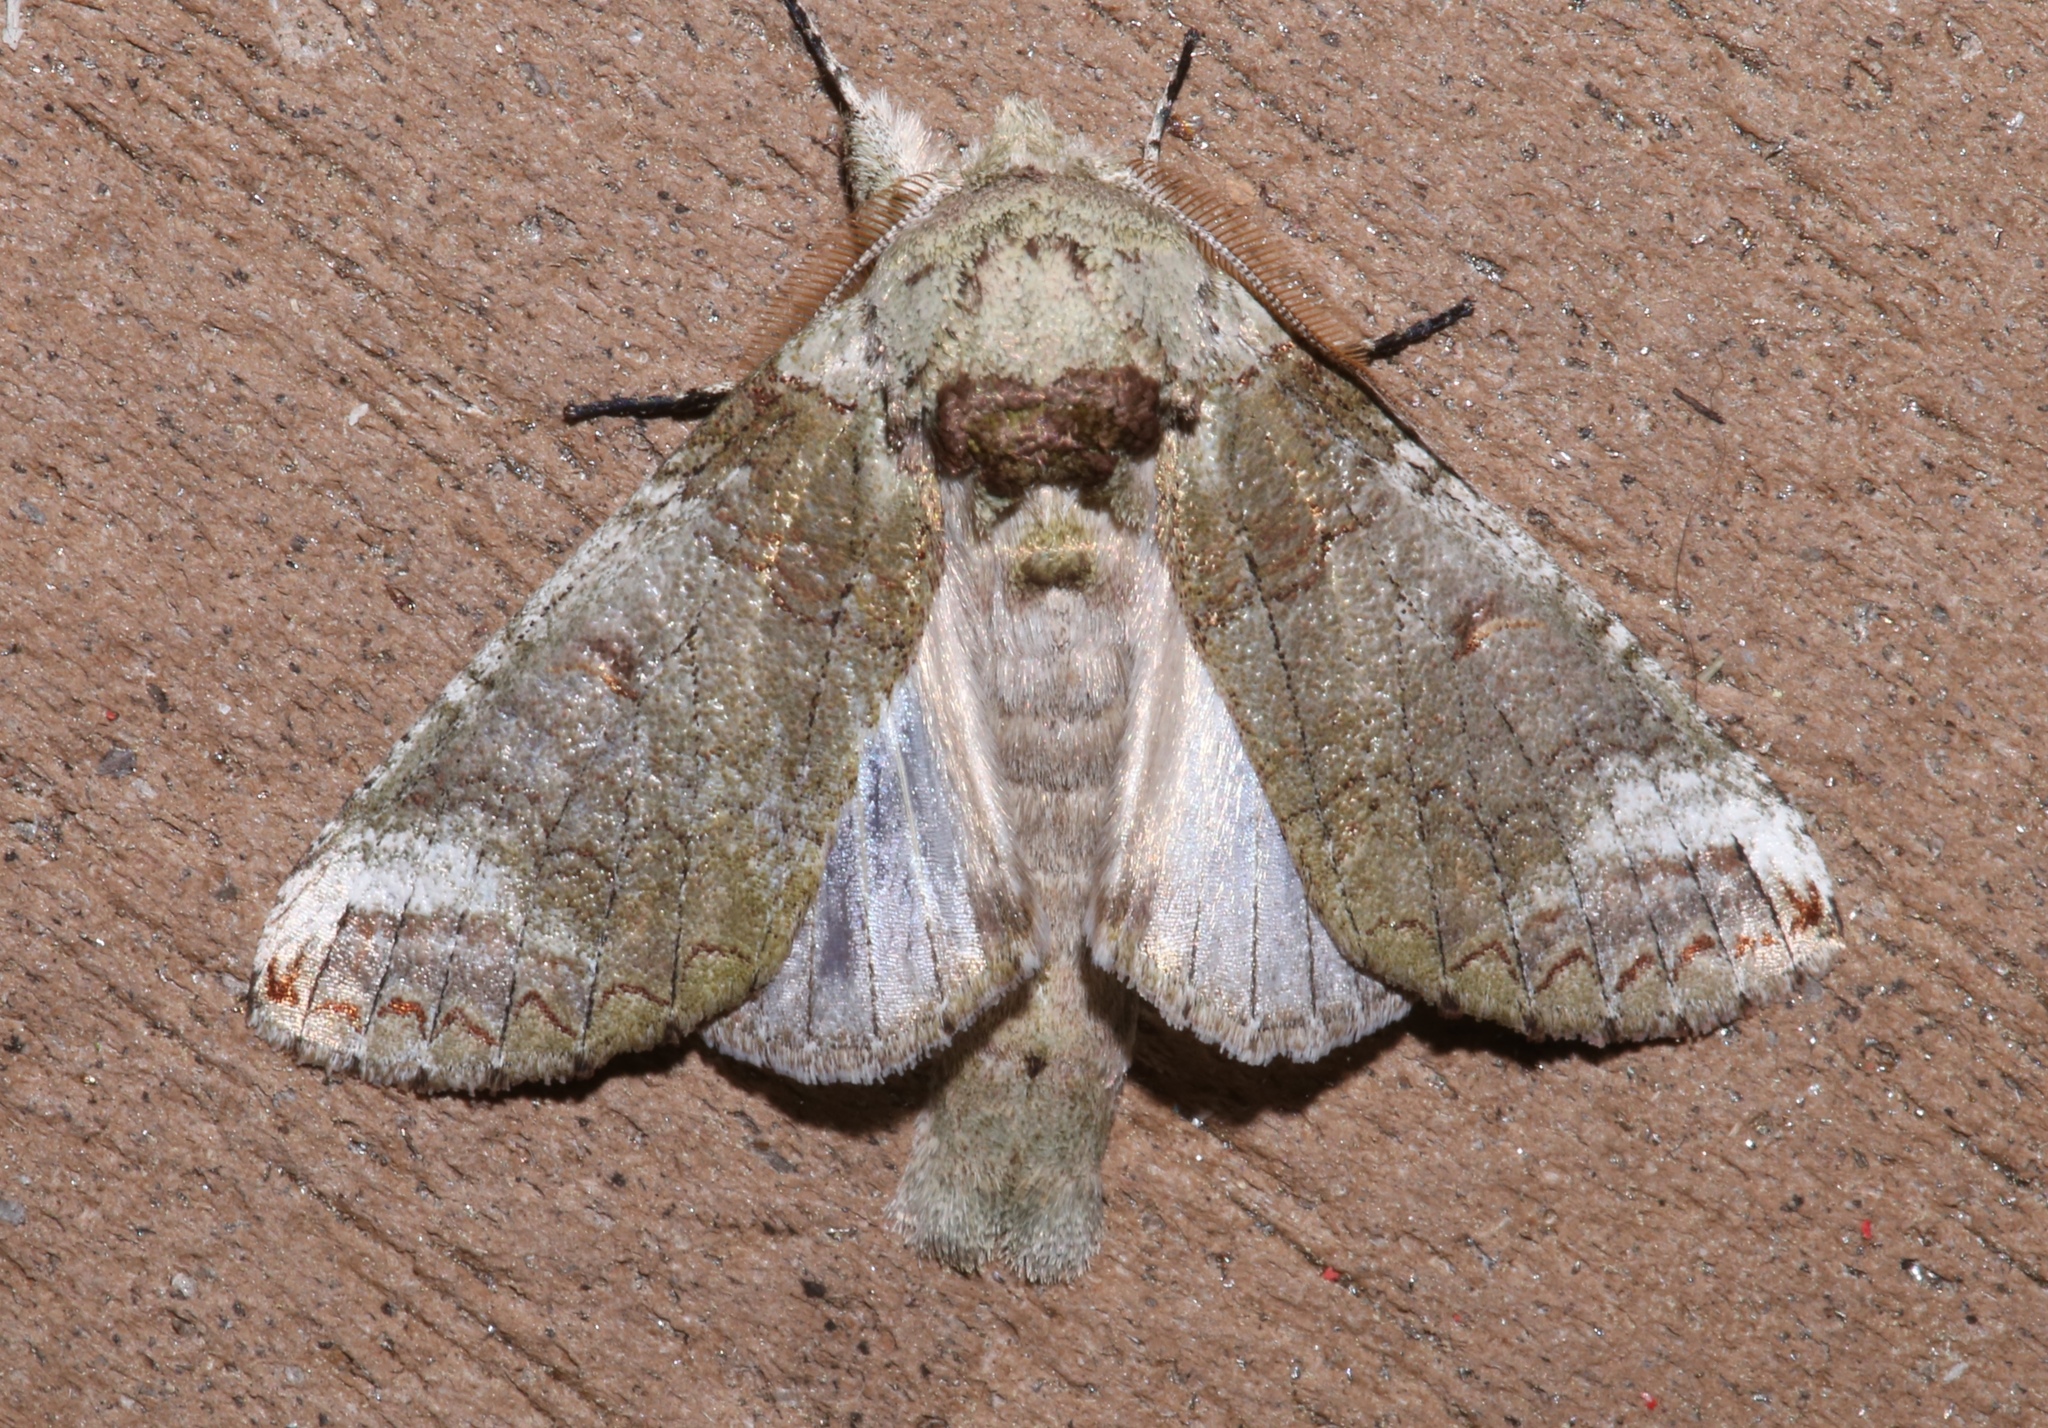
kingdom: Animalia
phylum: Arthropoda
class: Insecta
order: Lepidoptera
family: Notodontidae
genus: Heterocampa
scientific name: Heterocampa astarte
